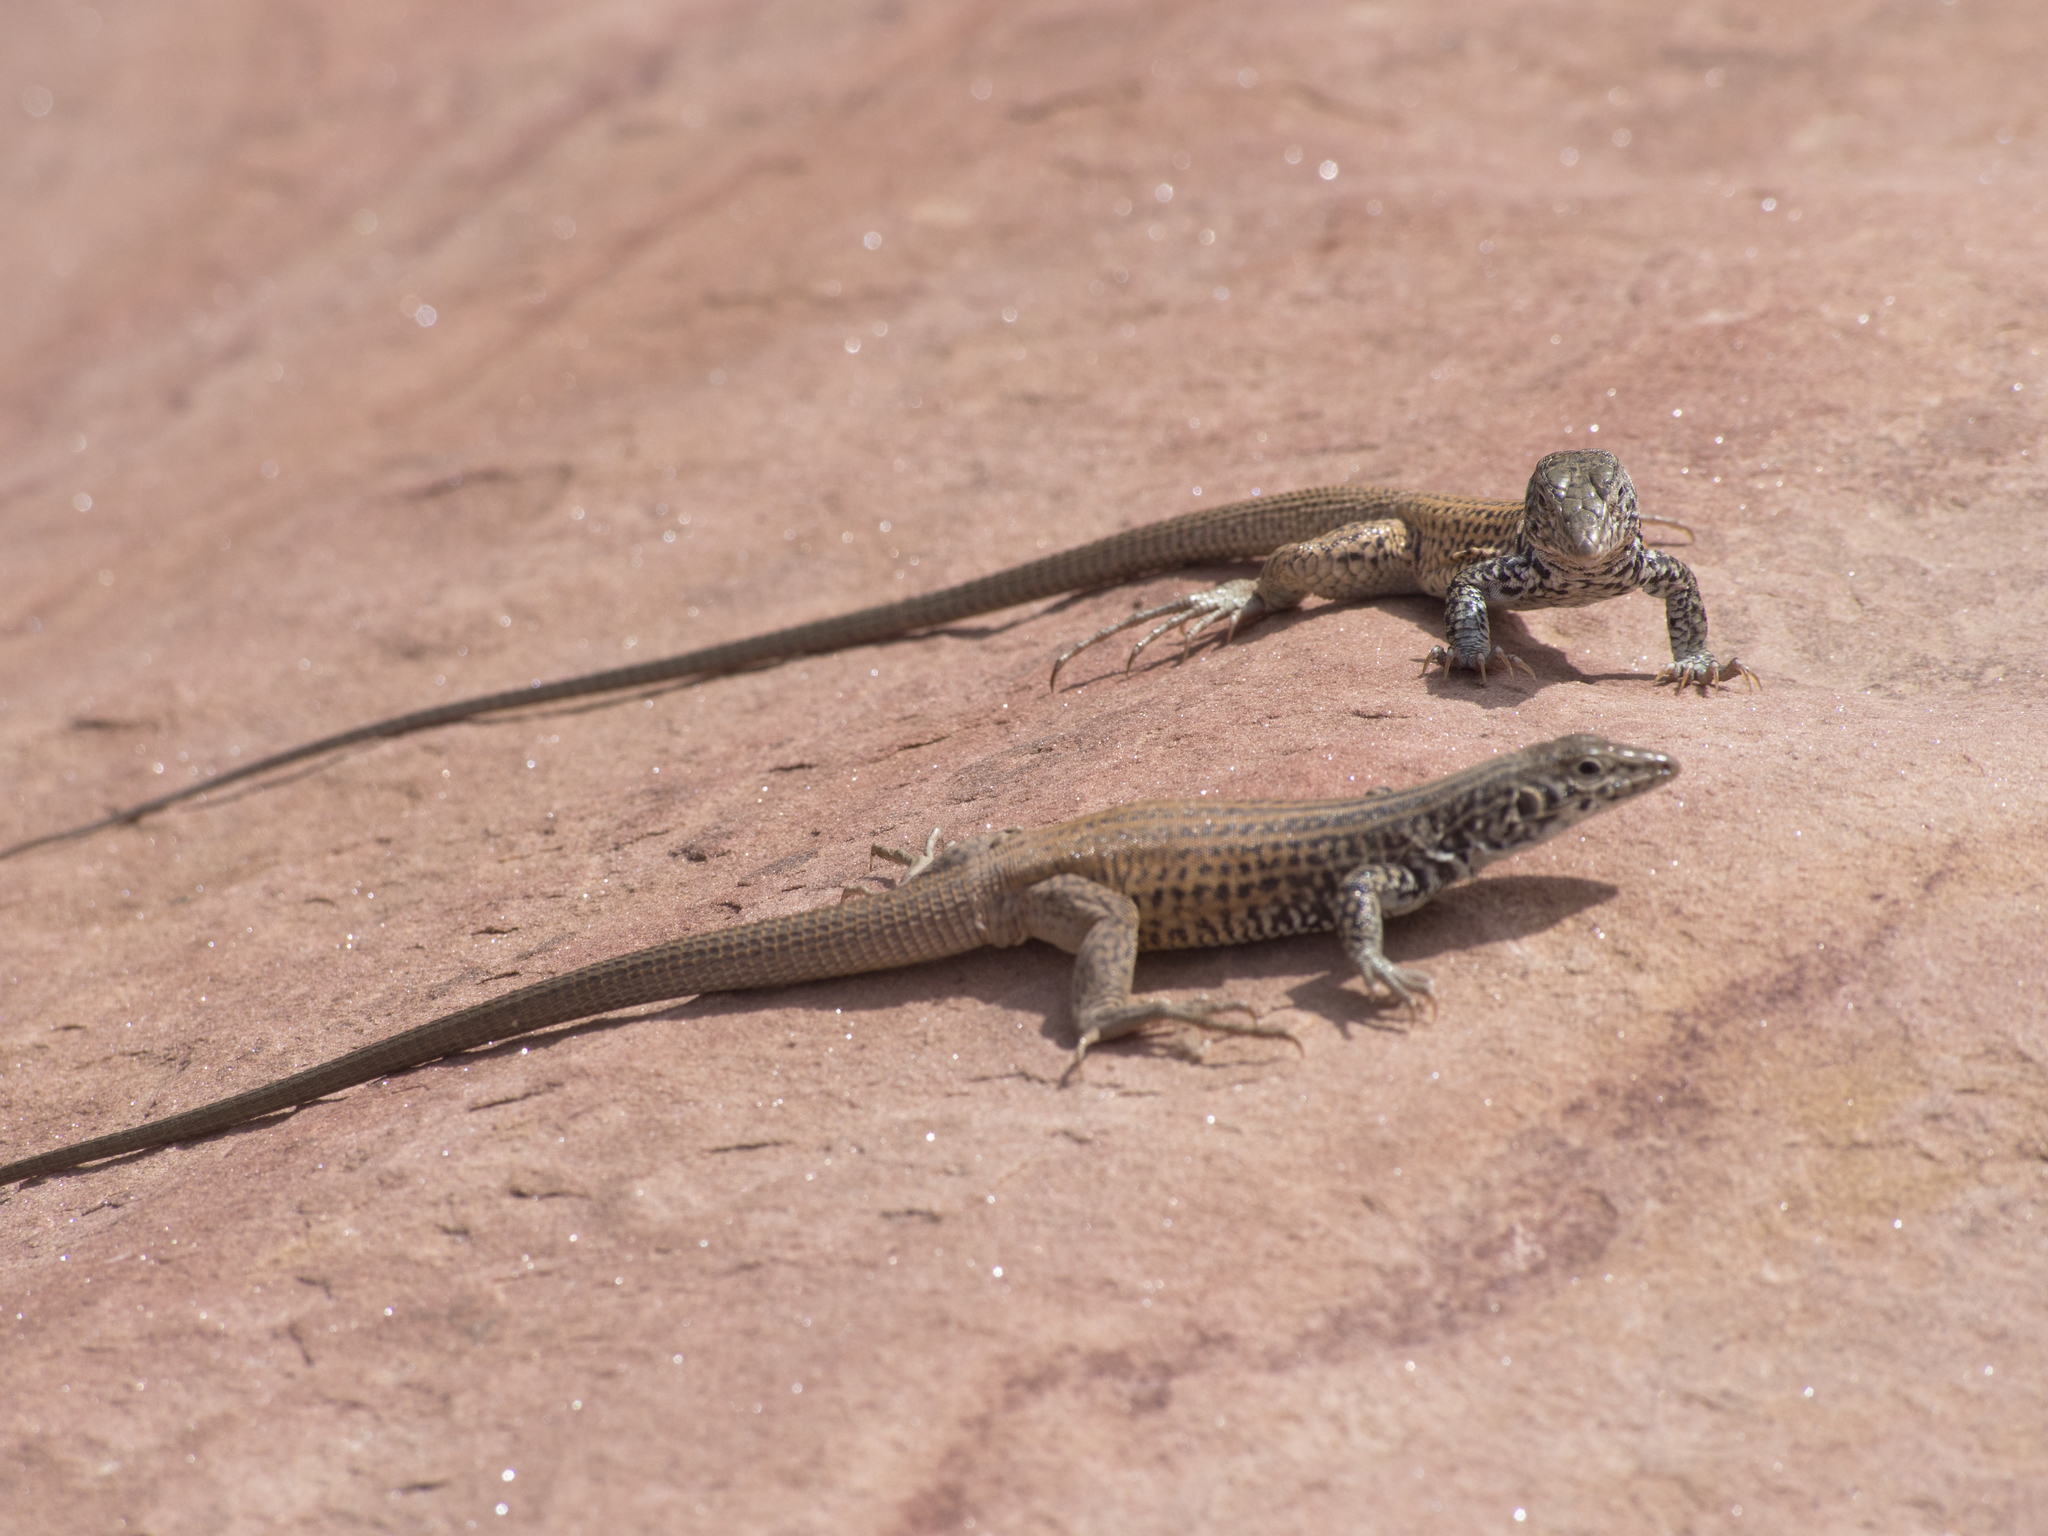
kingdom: Animalia
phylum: Chordata
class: Squamata
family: Teiidae
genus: Aspidoscelis
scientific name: Aspidoscelis tigris
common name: Tiger whiptail
